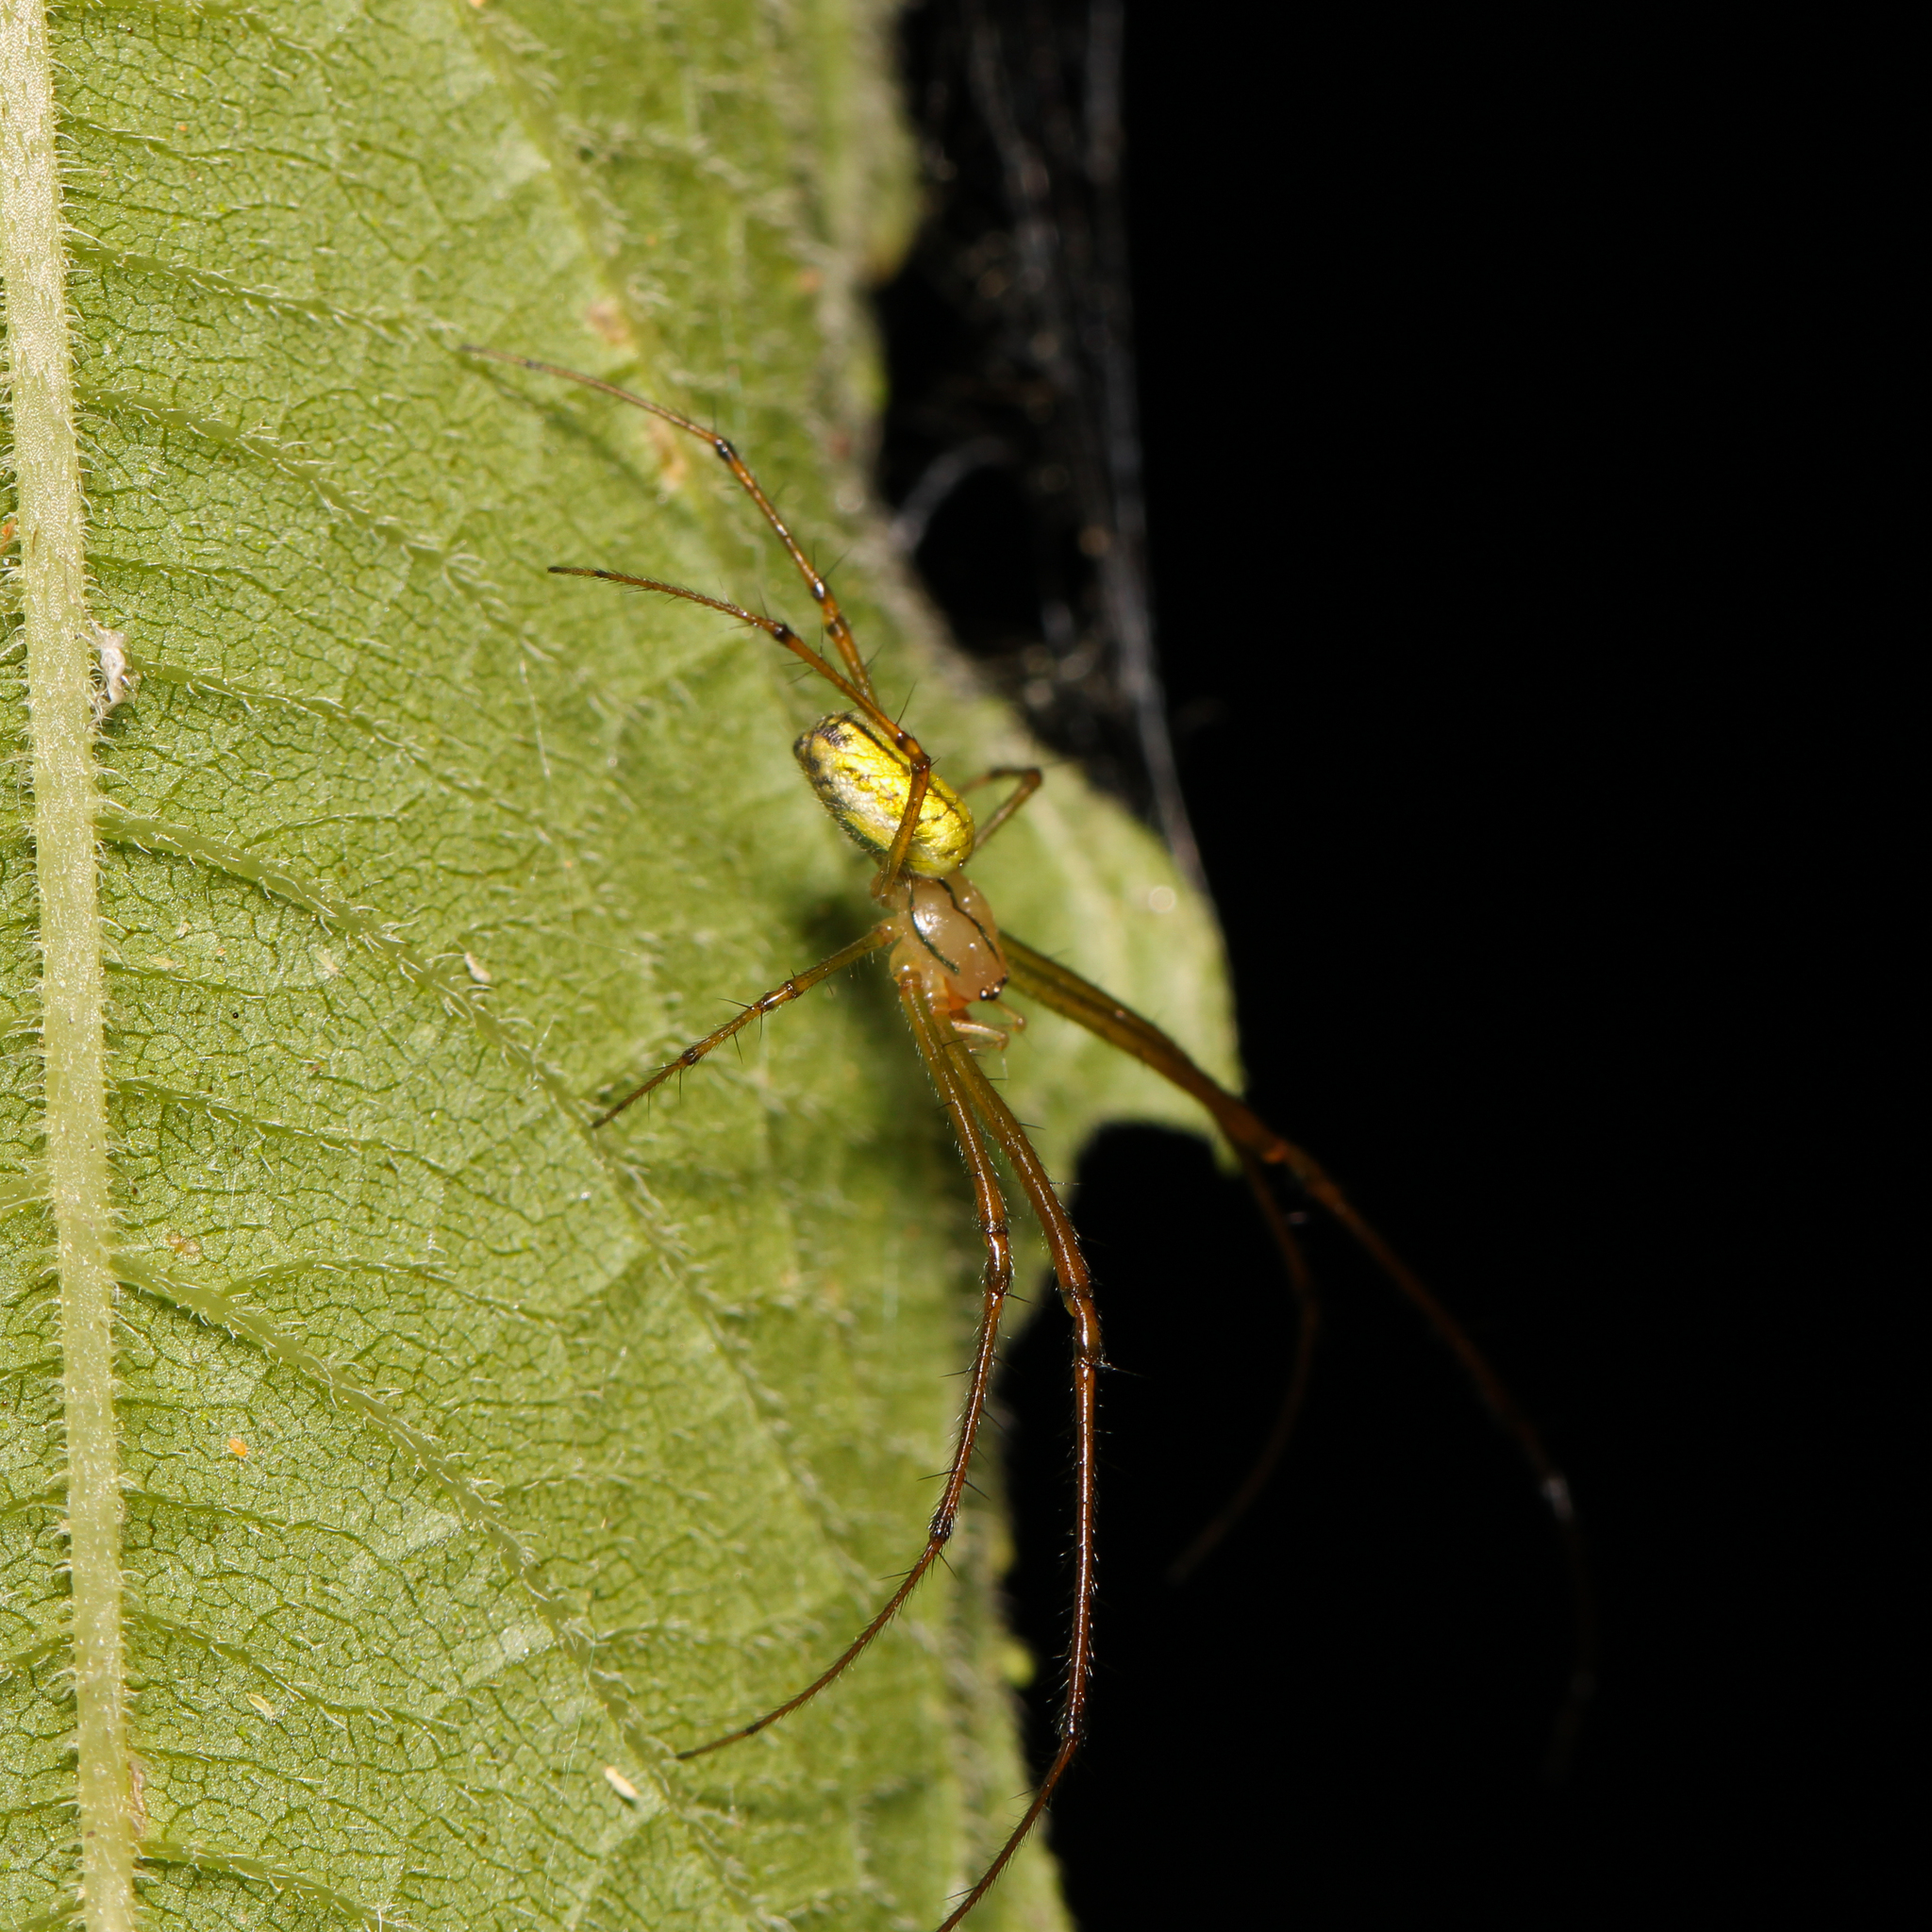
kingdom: Animalia
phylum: Arthropoda
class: Arachnida
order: Araneae
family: Tetragnathidae
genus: Leucauge
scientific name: Leucauge venusta
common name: Longjawed orb weavers
